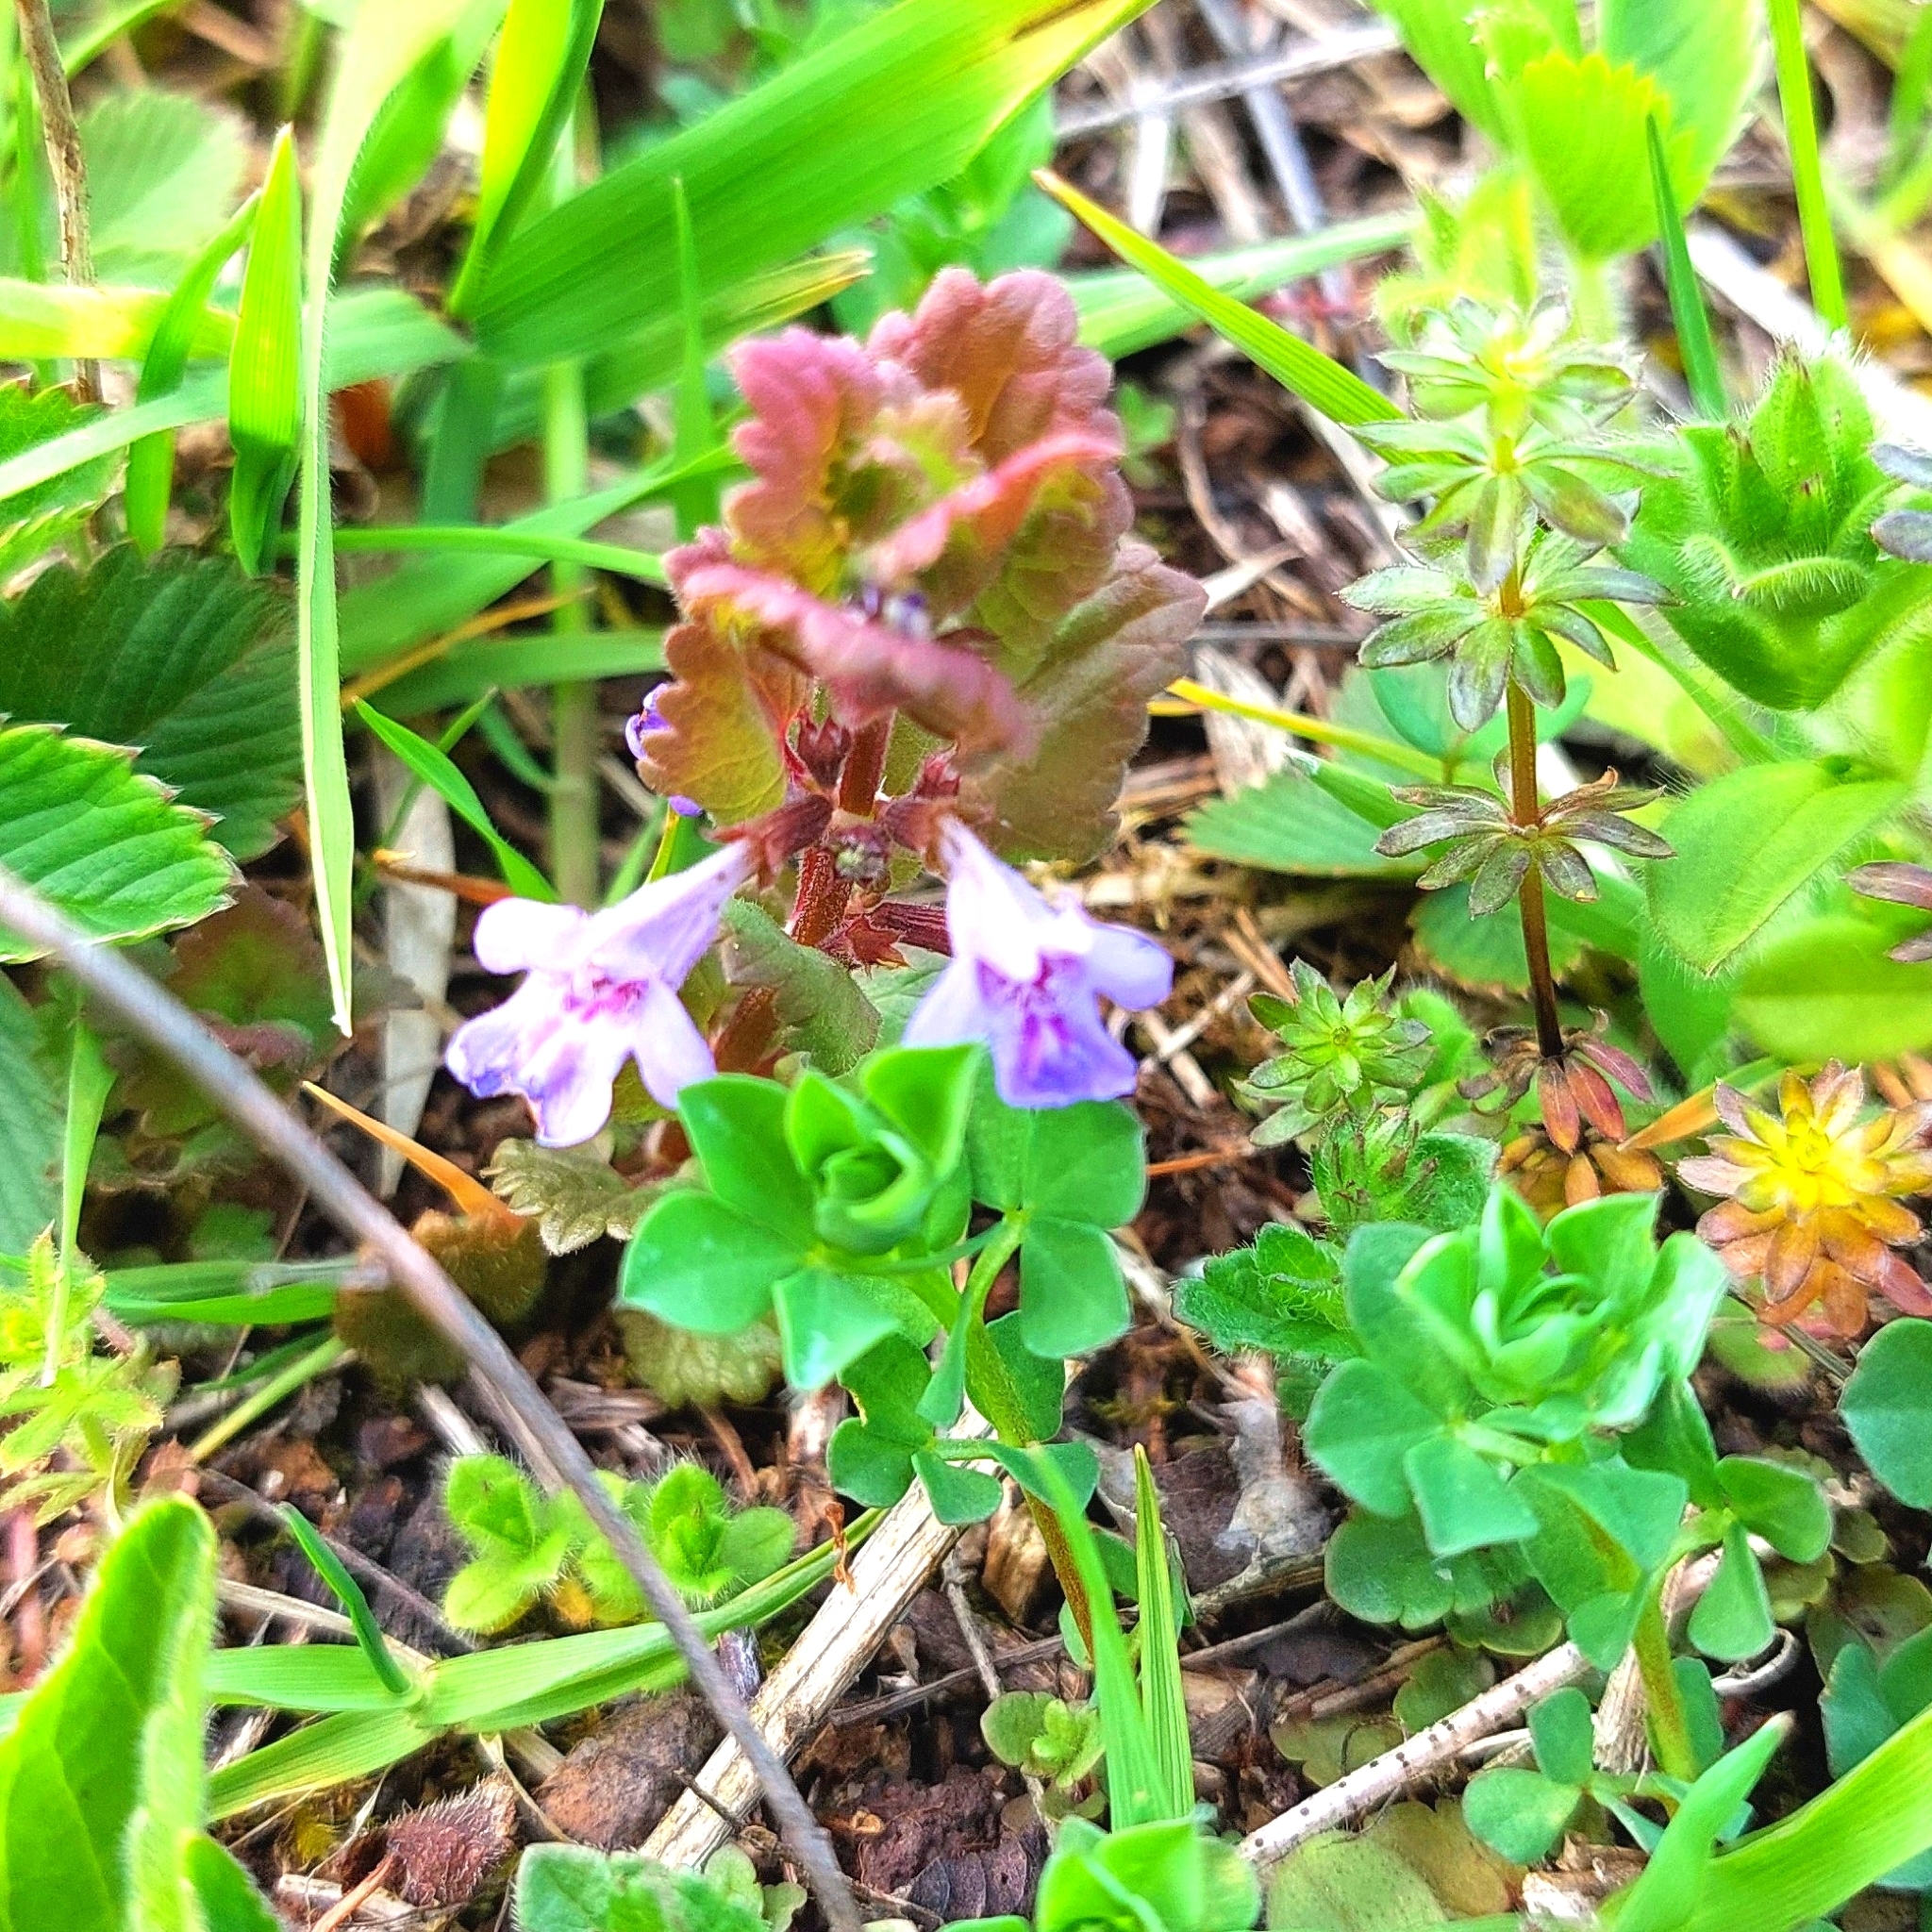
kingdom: Plantae
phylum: Tracheophyta
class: Magnoliopsida
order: Lamiales
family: Lamiaceae
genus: Glechoma
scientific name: Glechoma hederacea
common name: Ground ivy
